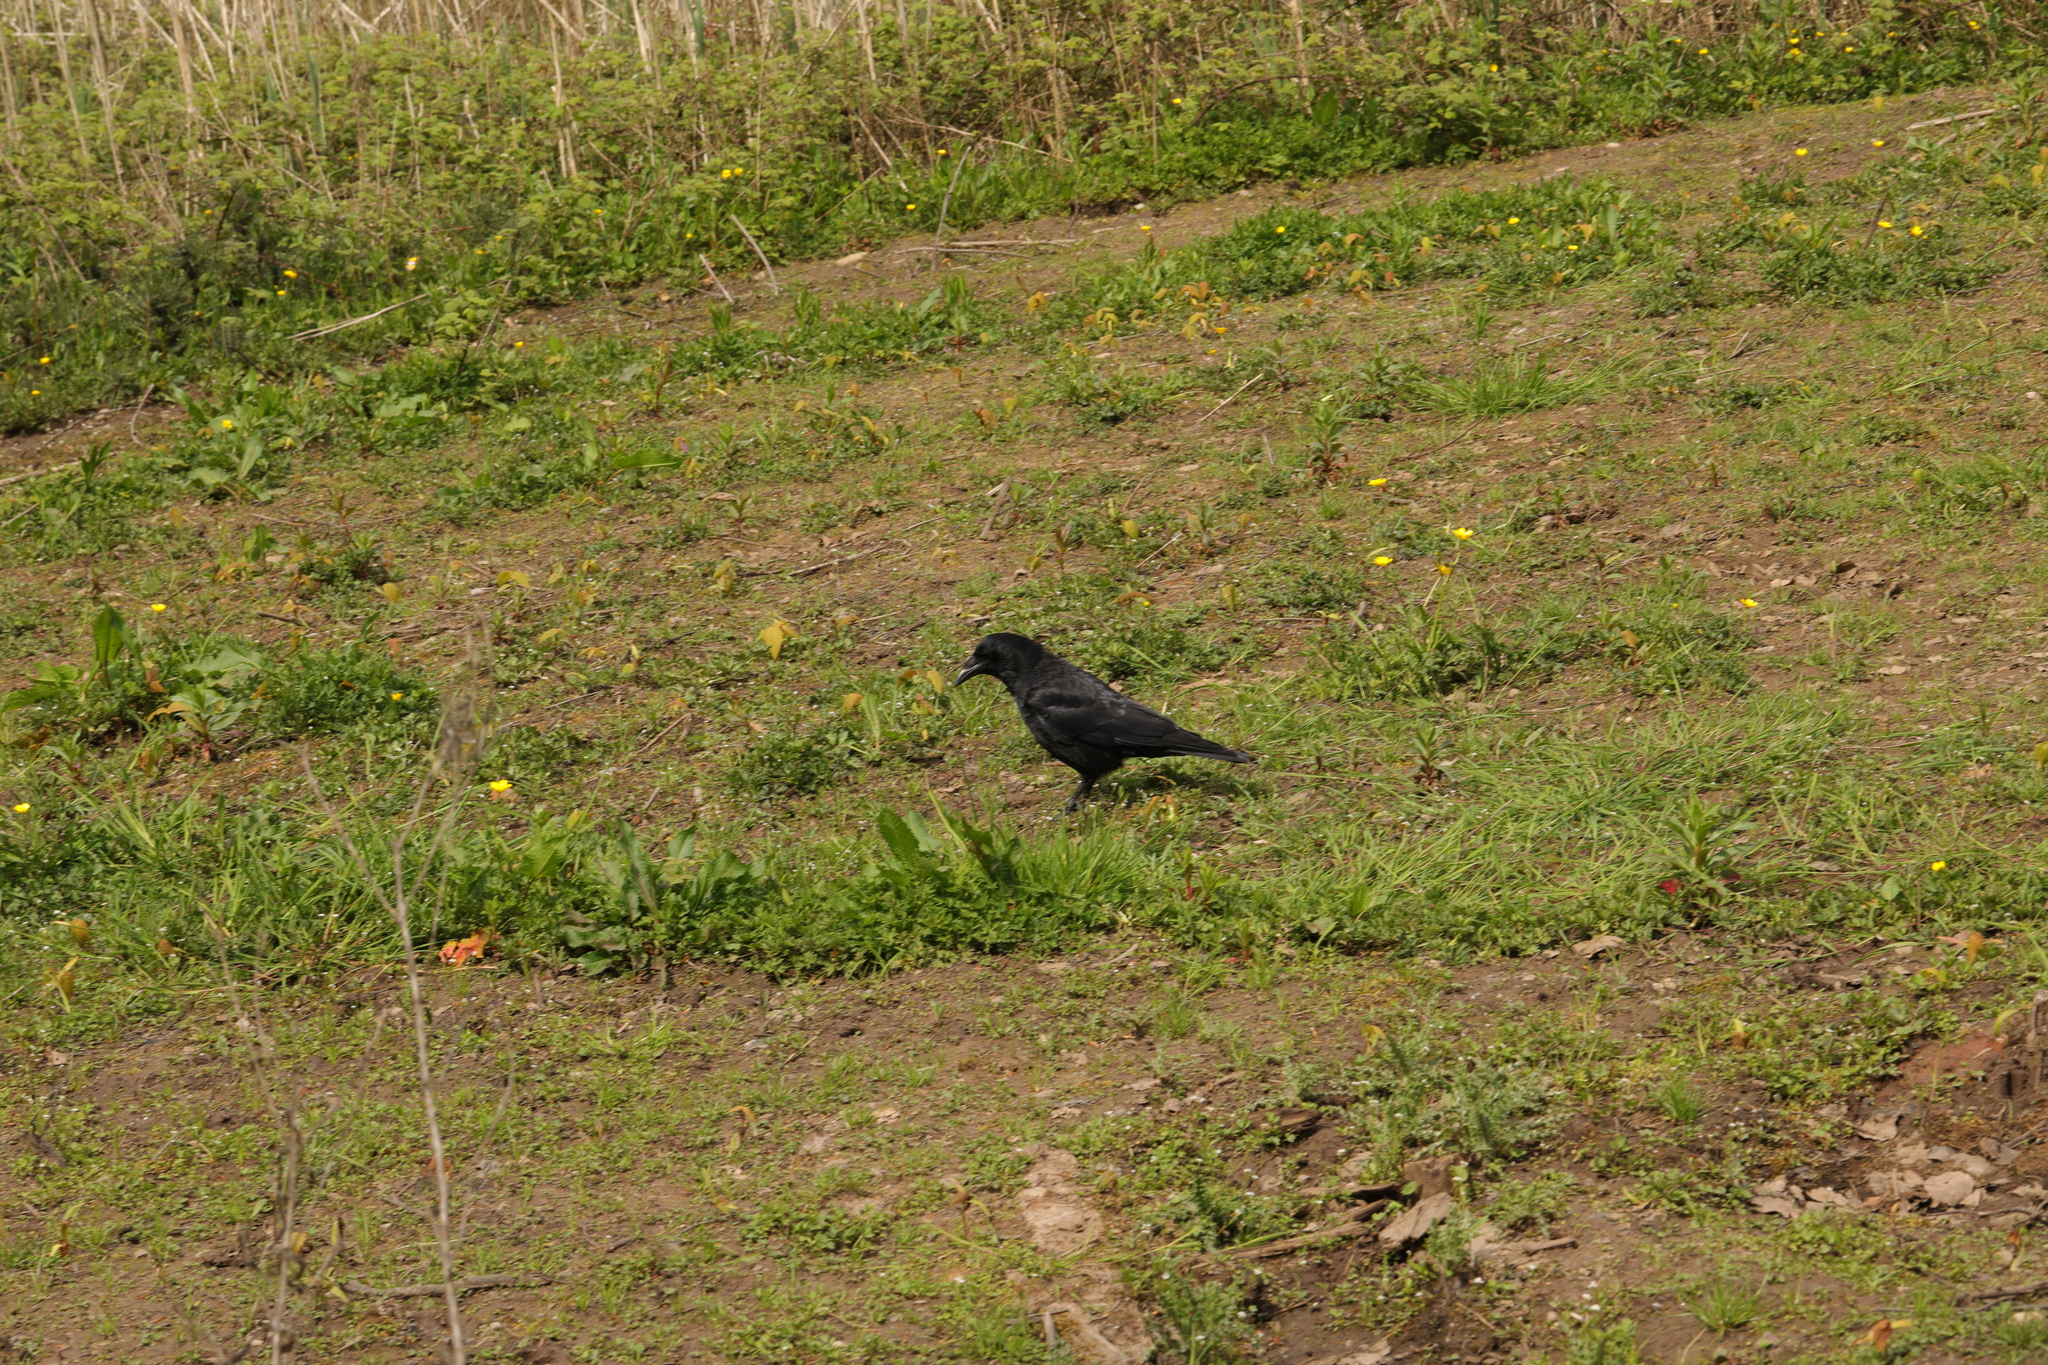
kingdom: Animalia
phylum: Chordata
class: Aves
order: Passeriformes
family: Corvidae
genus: Corvus
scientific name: Corvus corone
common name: Carrion crow
